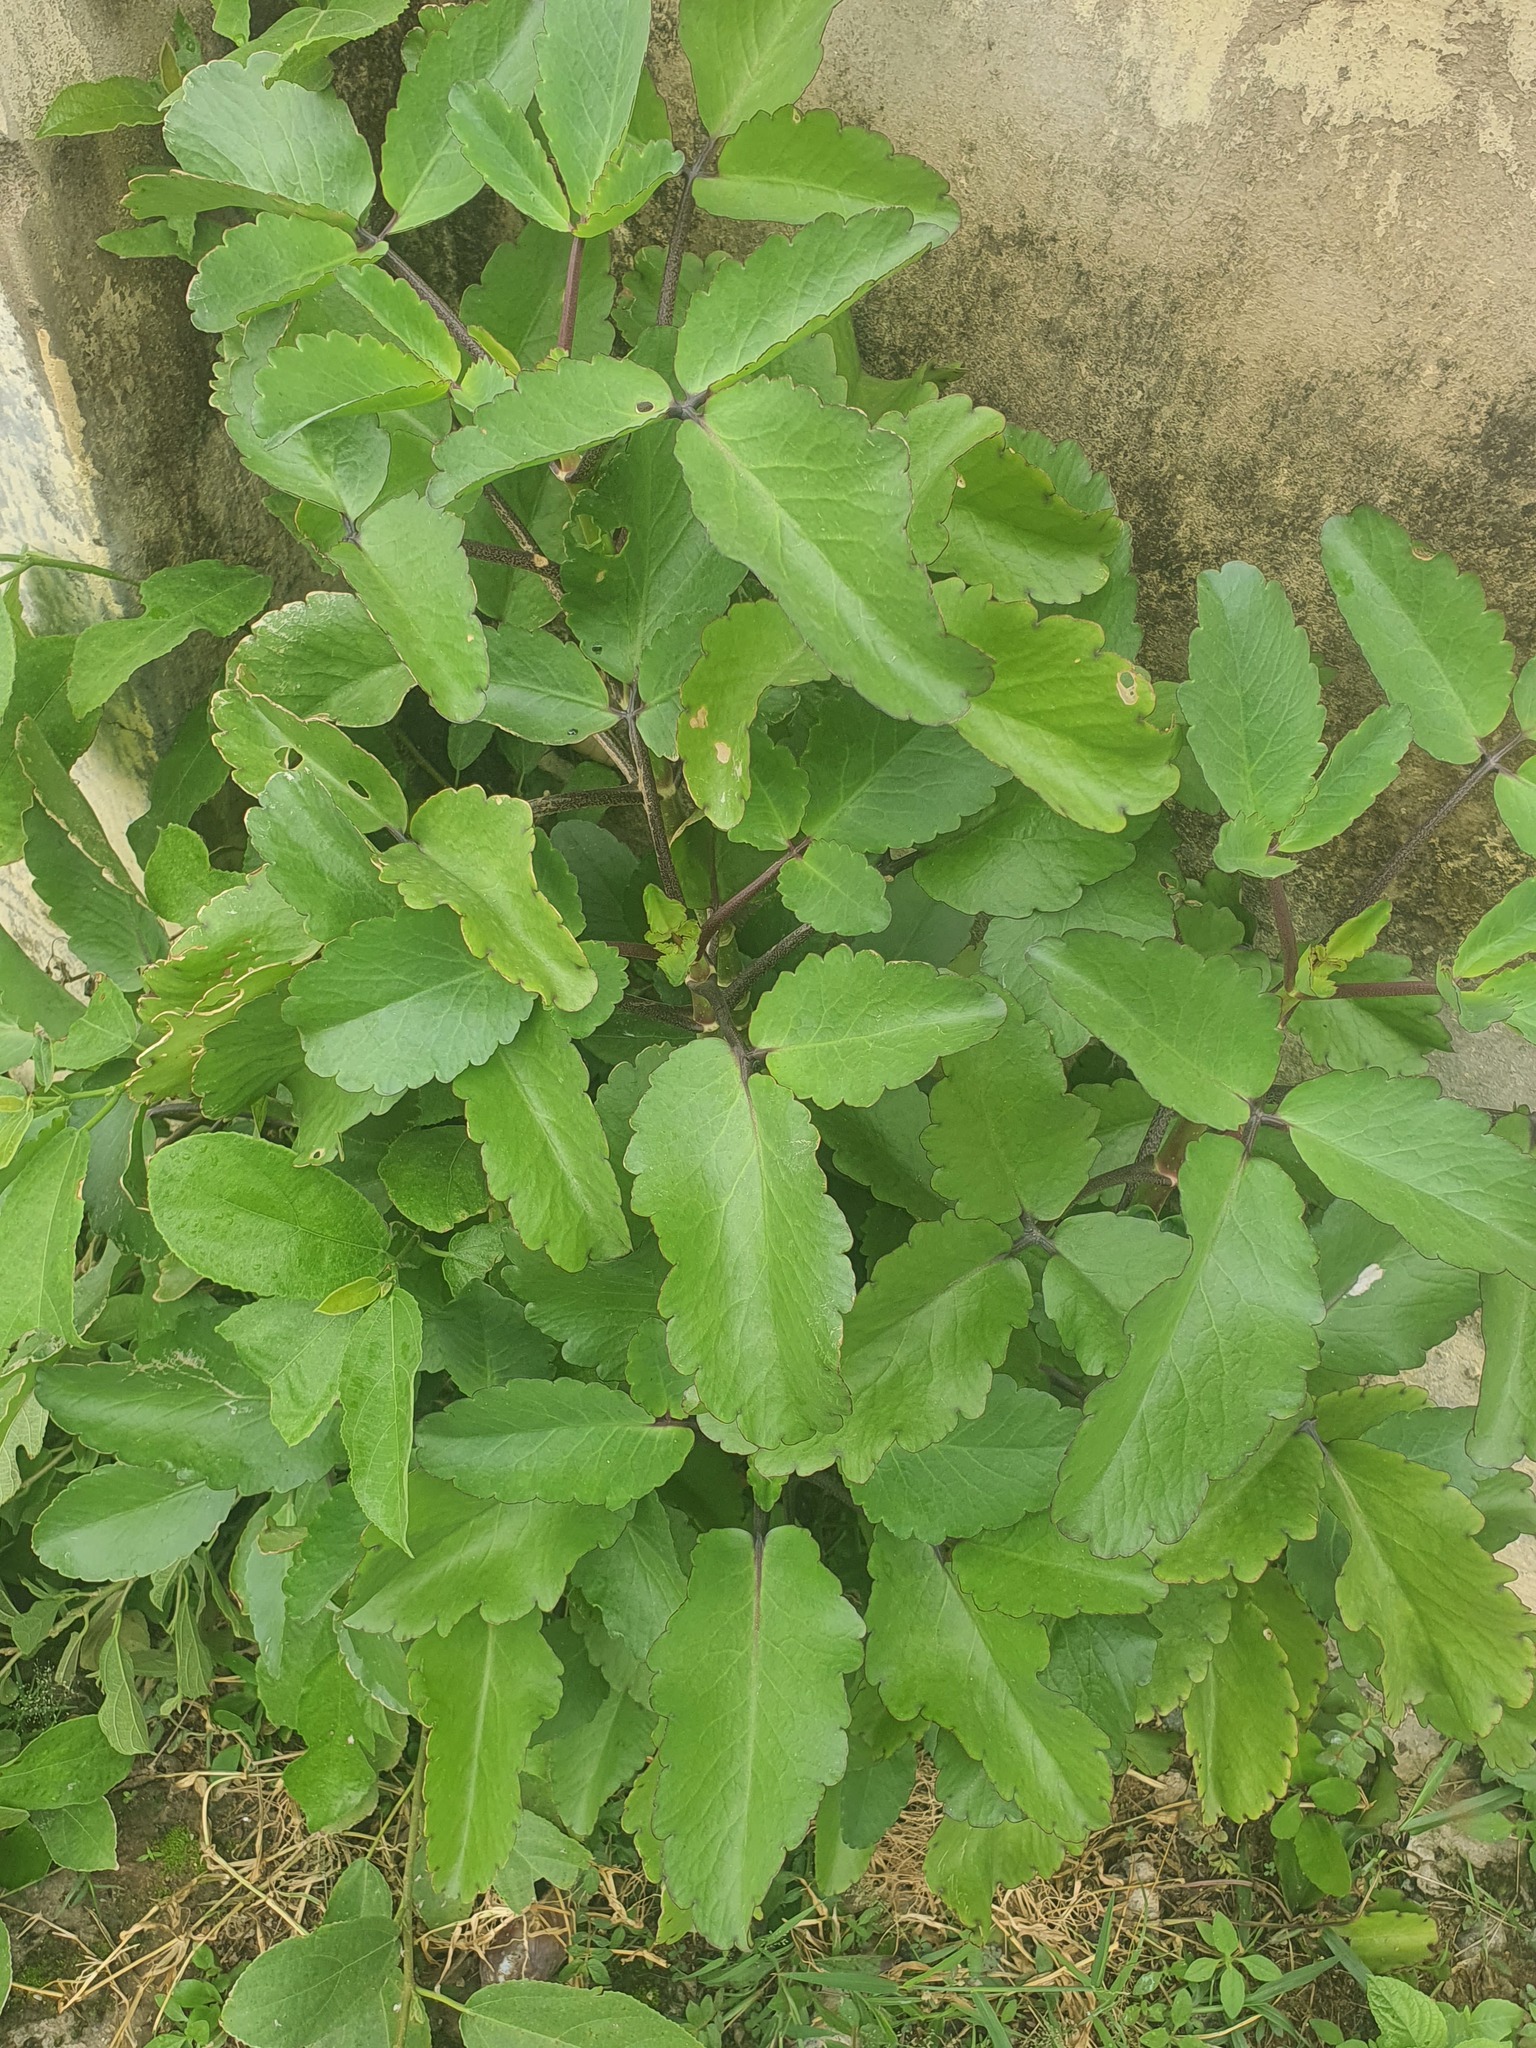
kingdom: Plantae
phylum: Tracheophyta
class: Magnoliopsida
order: Saxifragales
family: Crassulaceae
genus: Kalanchoe
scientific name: Kalanchoe pinnata
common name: Cathedral bells
